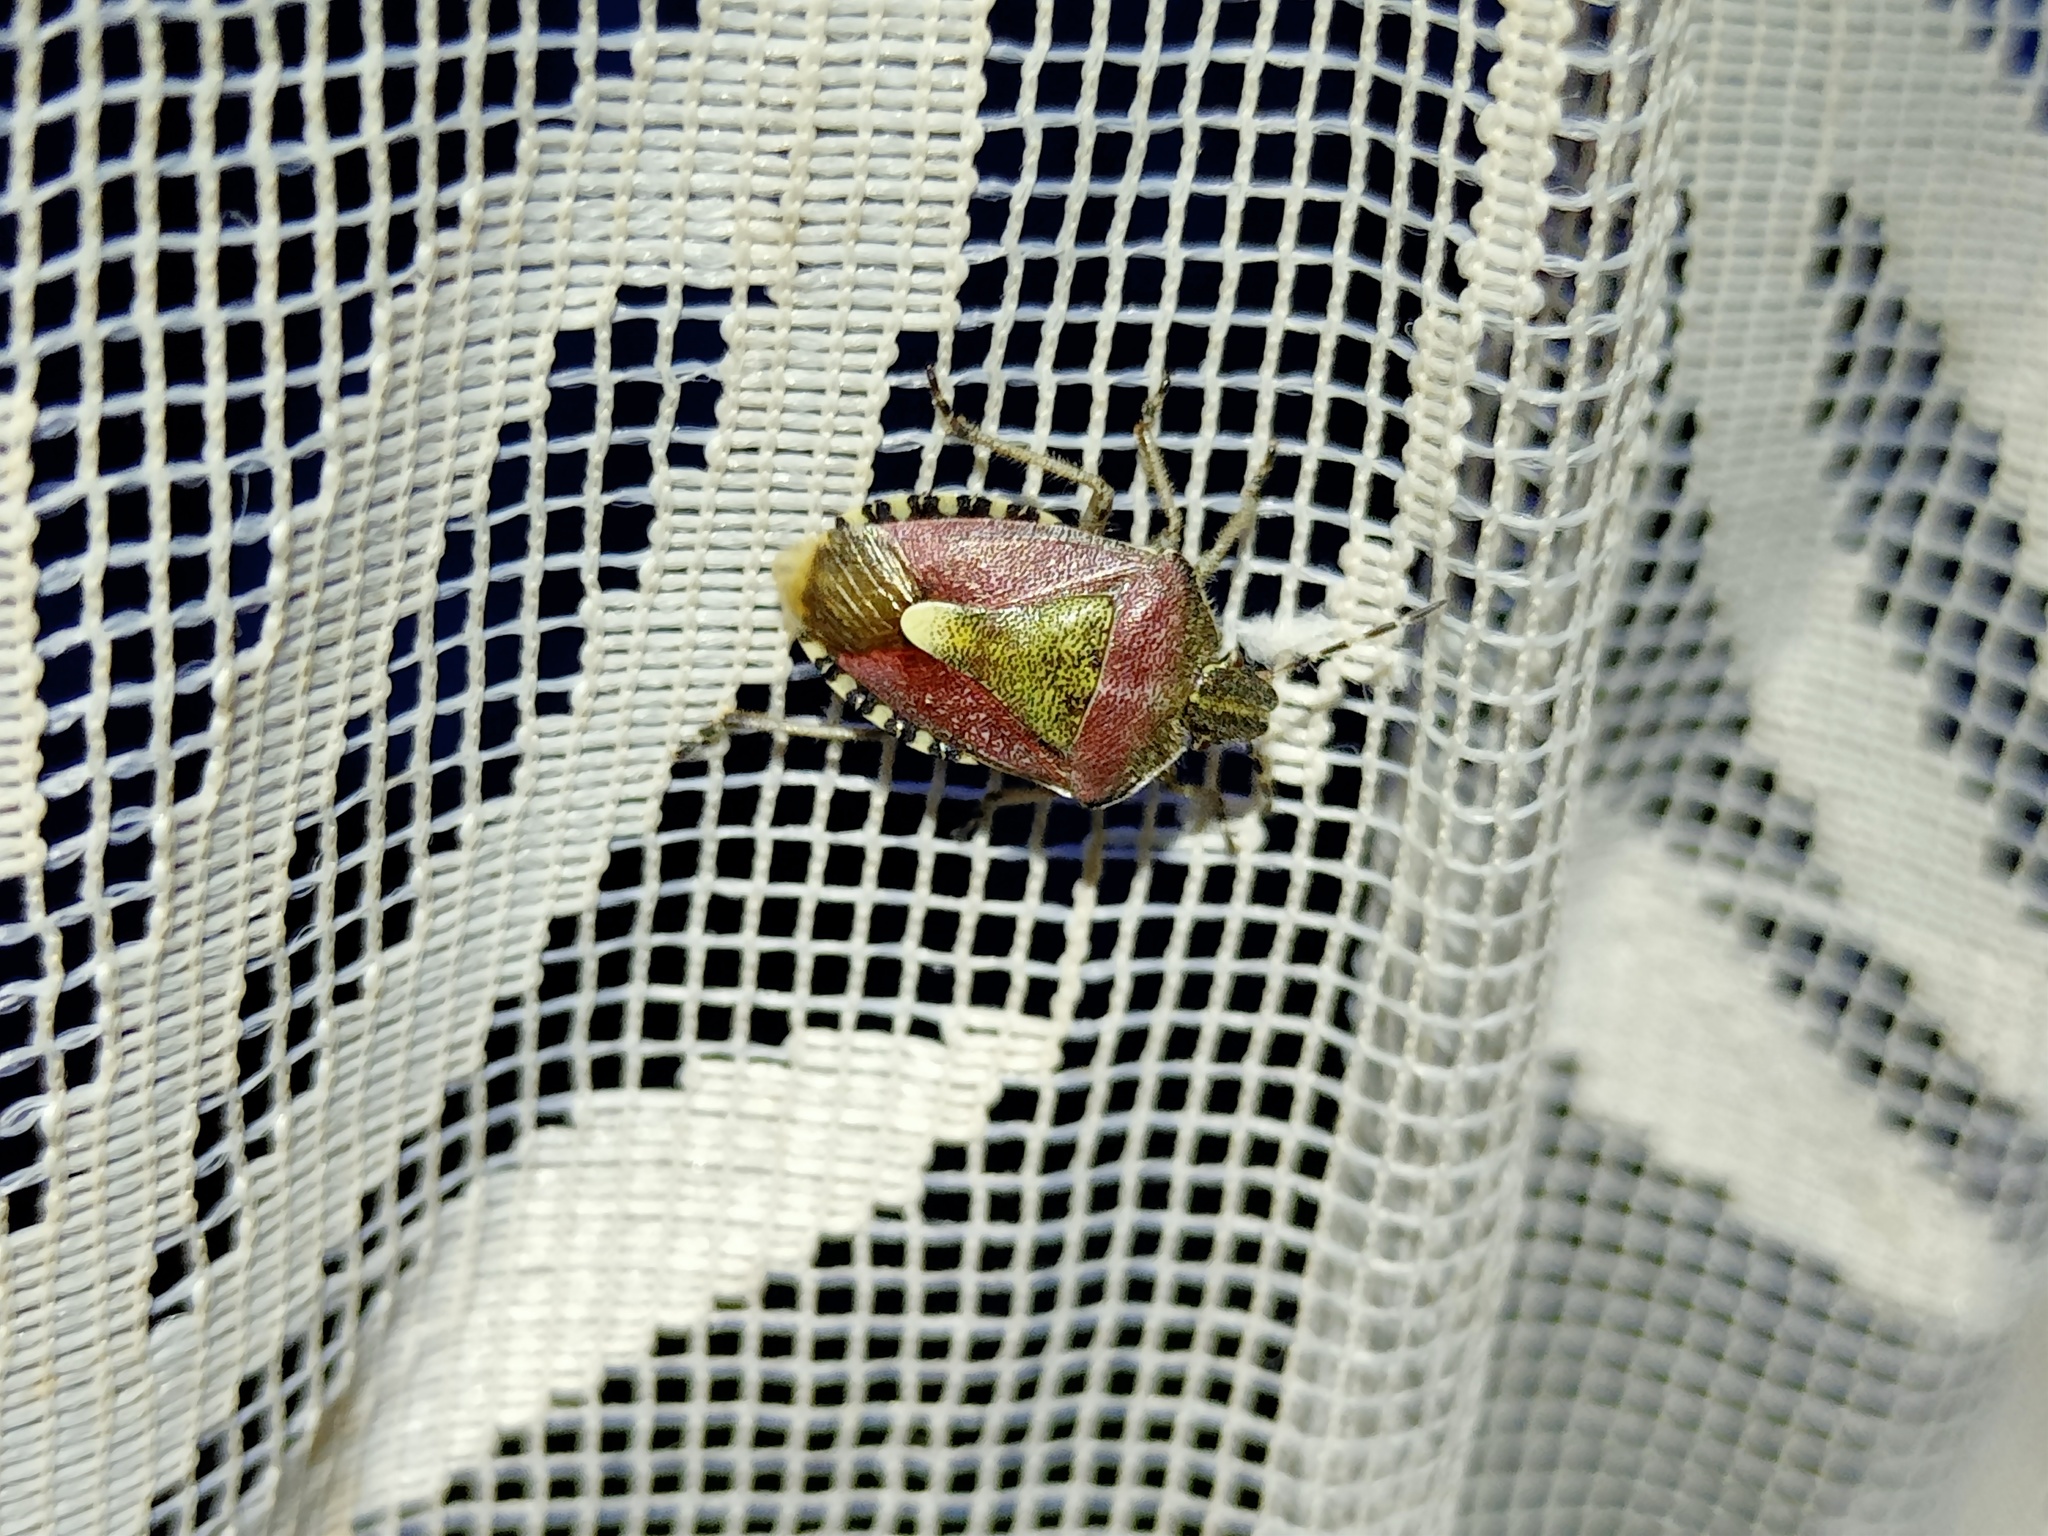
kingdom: Animalia
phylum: Arthropoda
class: Insecta
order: Hemiptera
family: Pentatomidae
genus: Dolycoris
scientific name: Dolycoris baccarum
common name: Sloe bug
